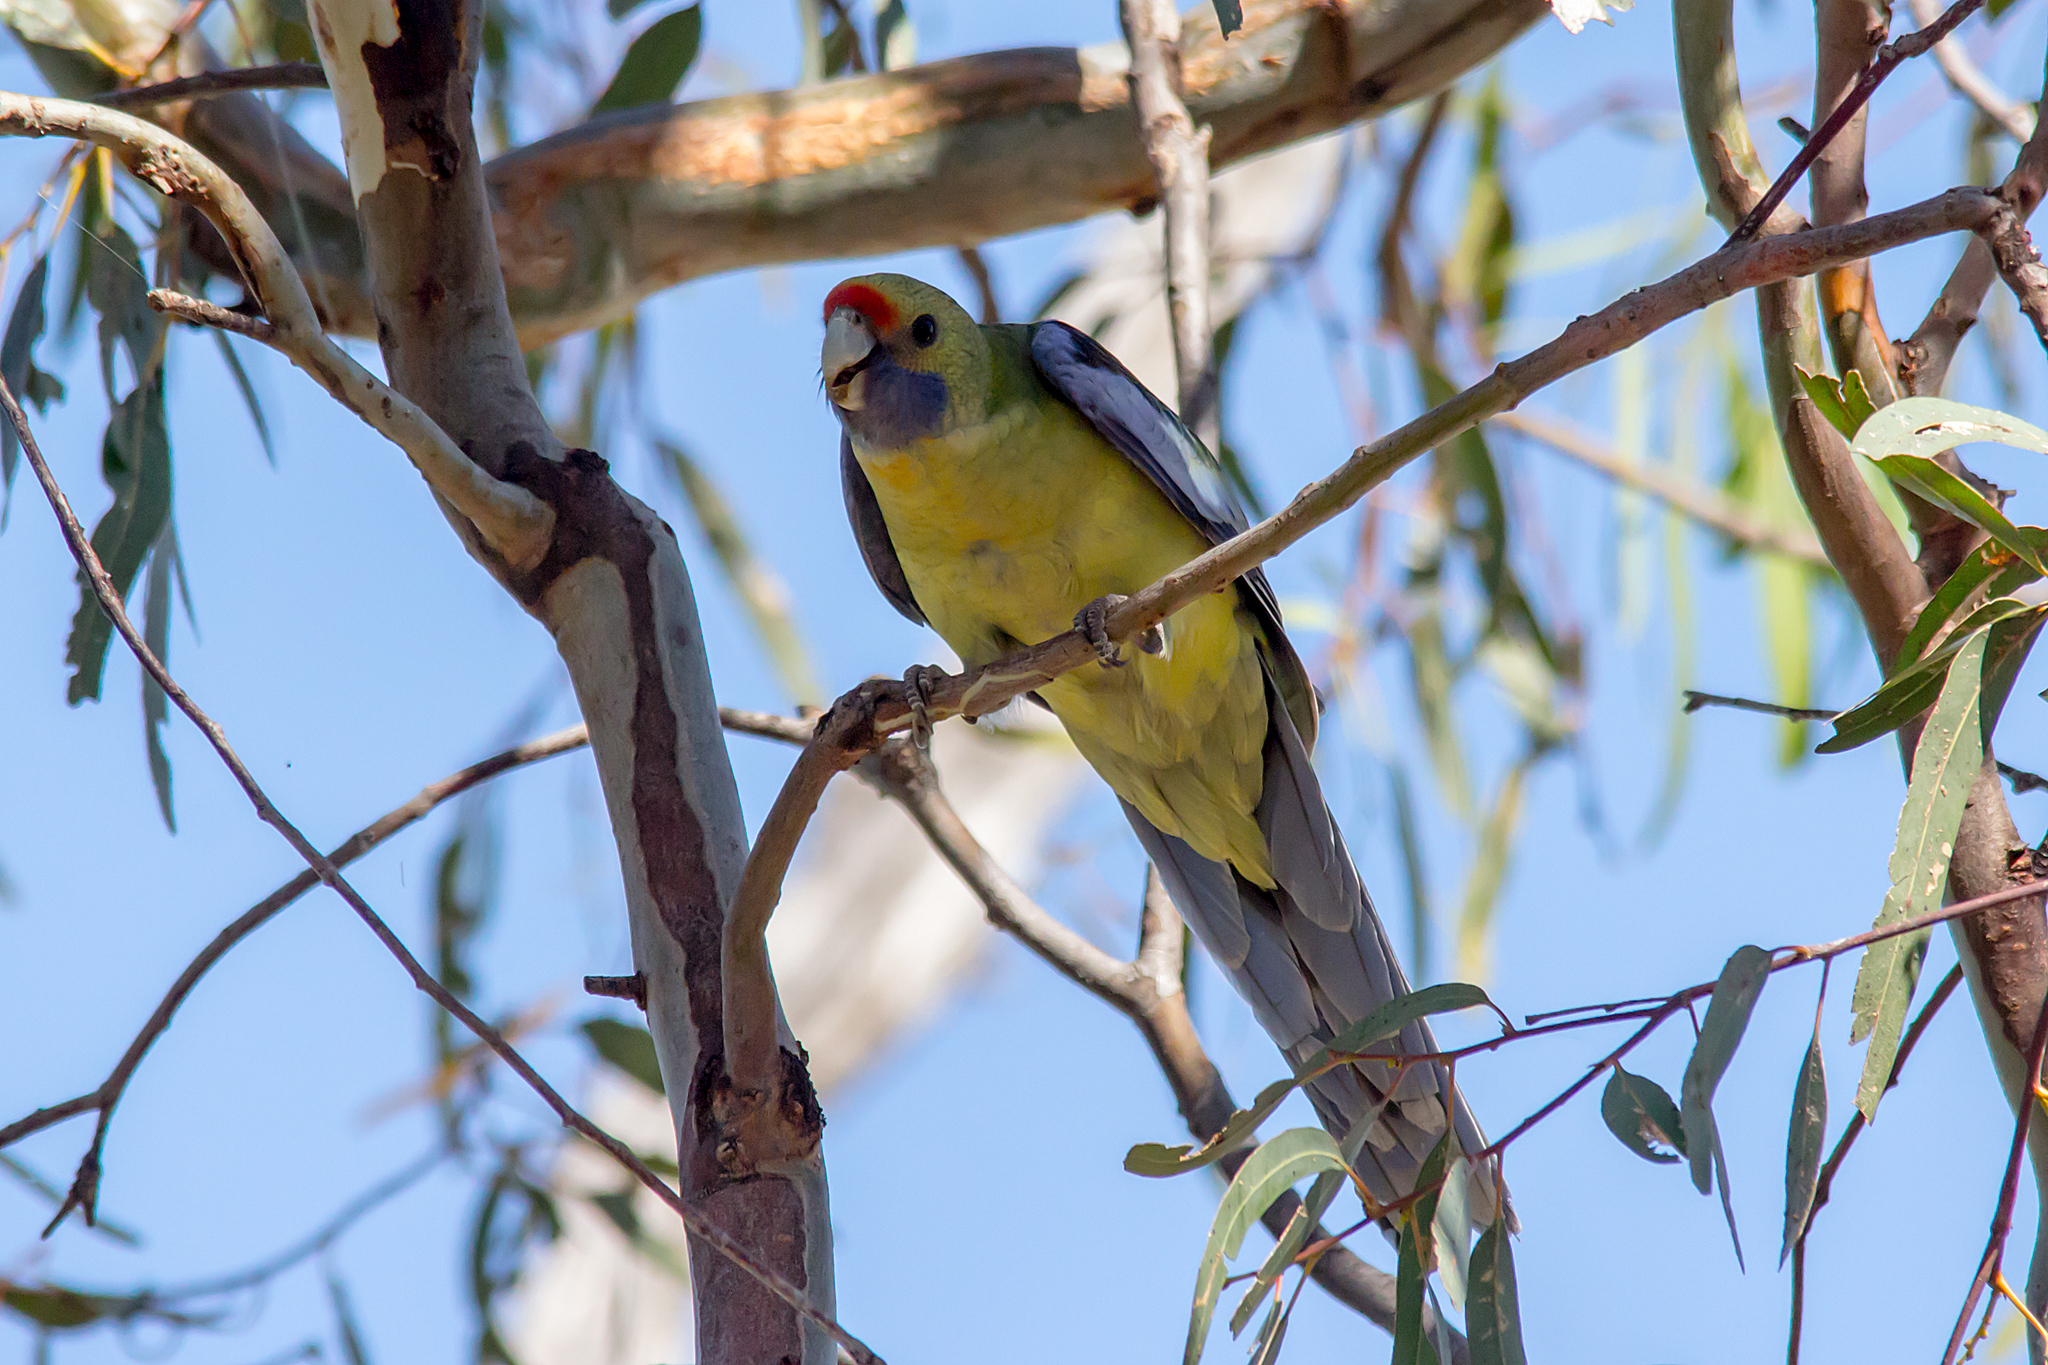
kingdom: Animalia
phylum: Chordata
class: Aves
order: Psittaciformes
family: Psittacidae
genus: Platycercus
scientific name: Platycercus elegans
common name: Crimson rosella
